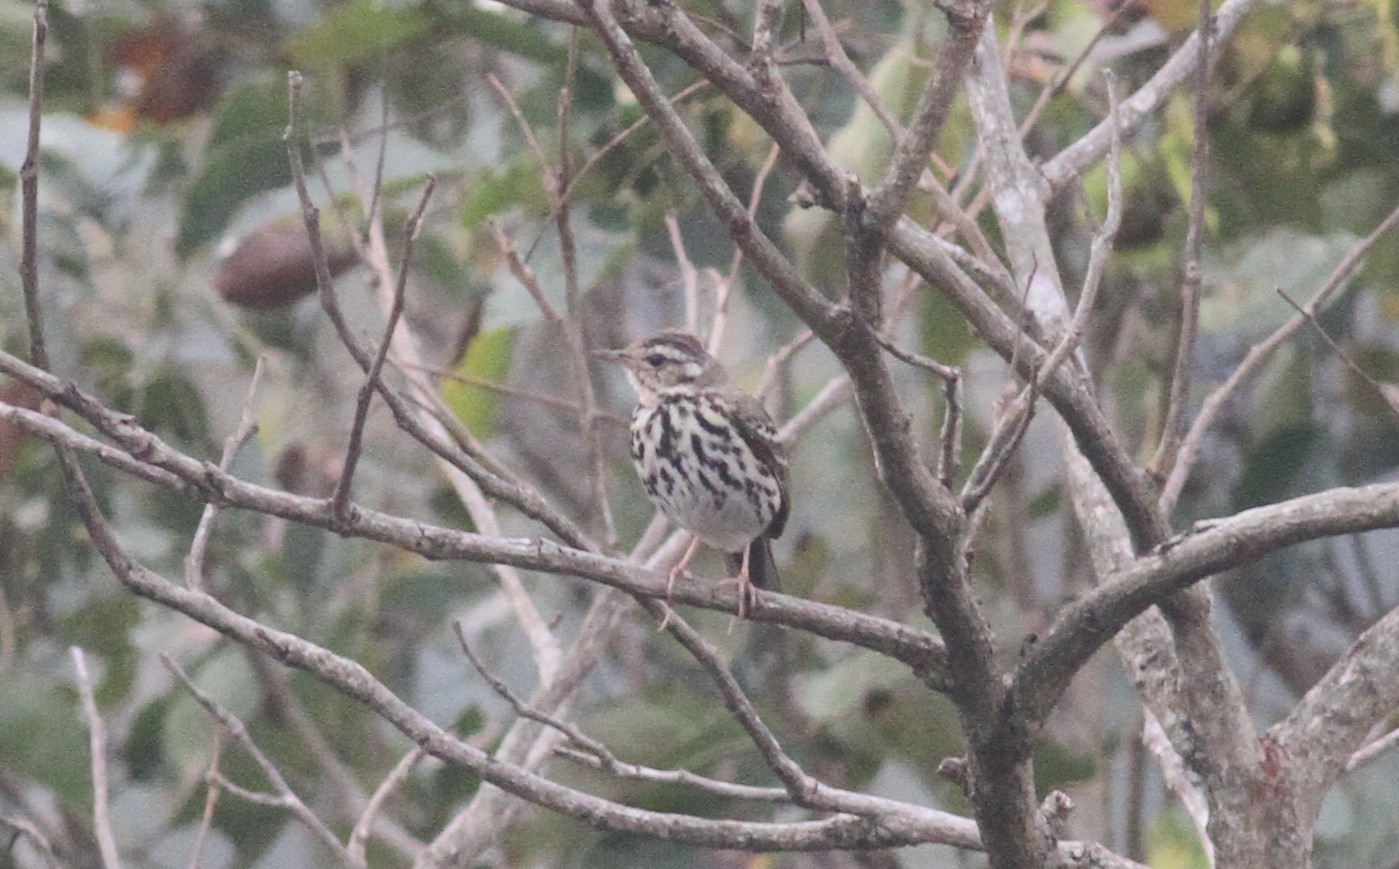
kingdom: Animalia
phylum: Chordata
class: Aves
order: Passeriformes
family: Motacillidae
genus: Anthus
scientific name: Anthus hodgsoni
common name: Olive-backed pipit
